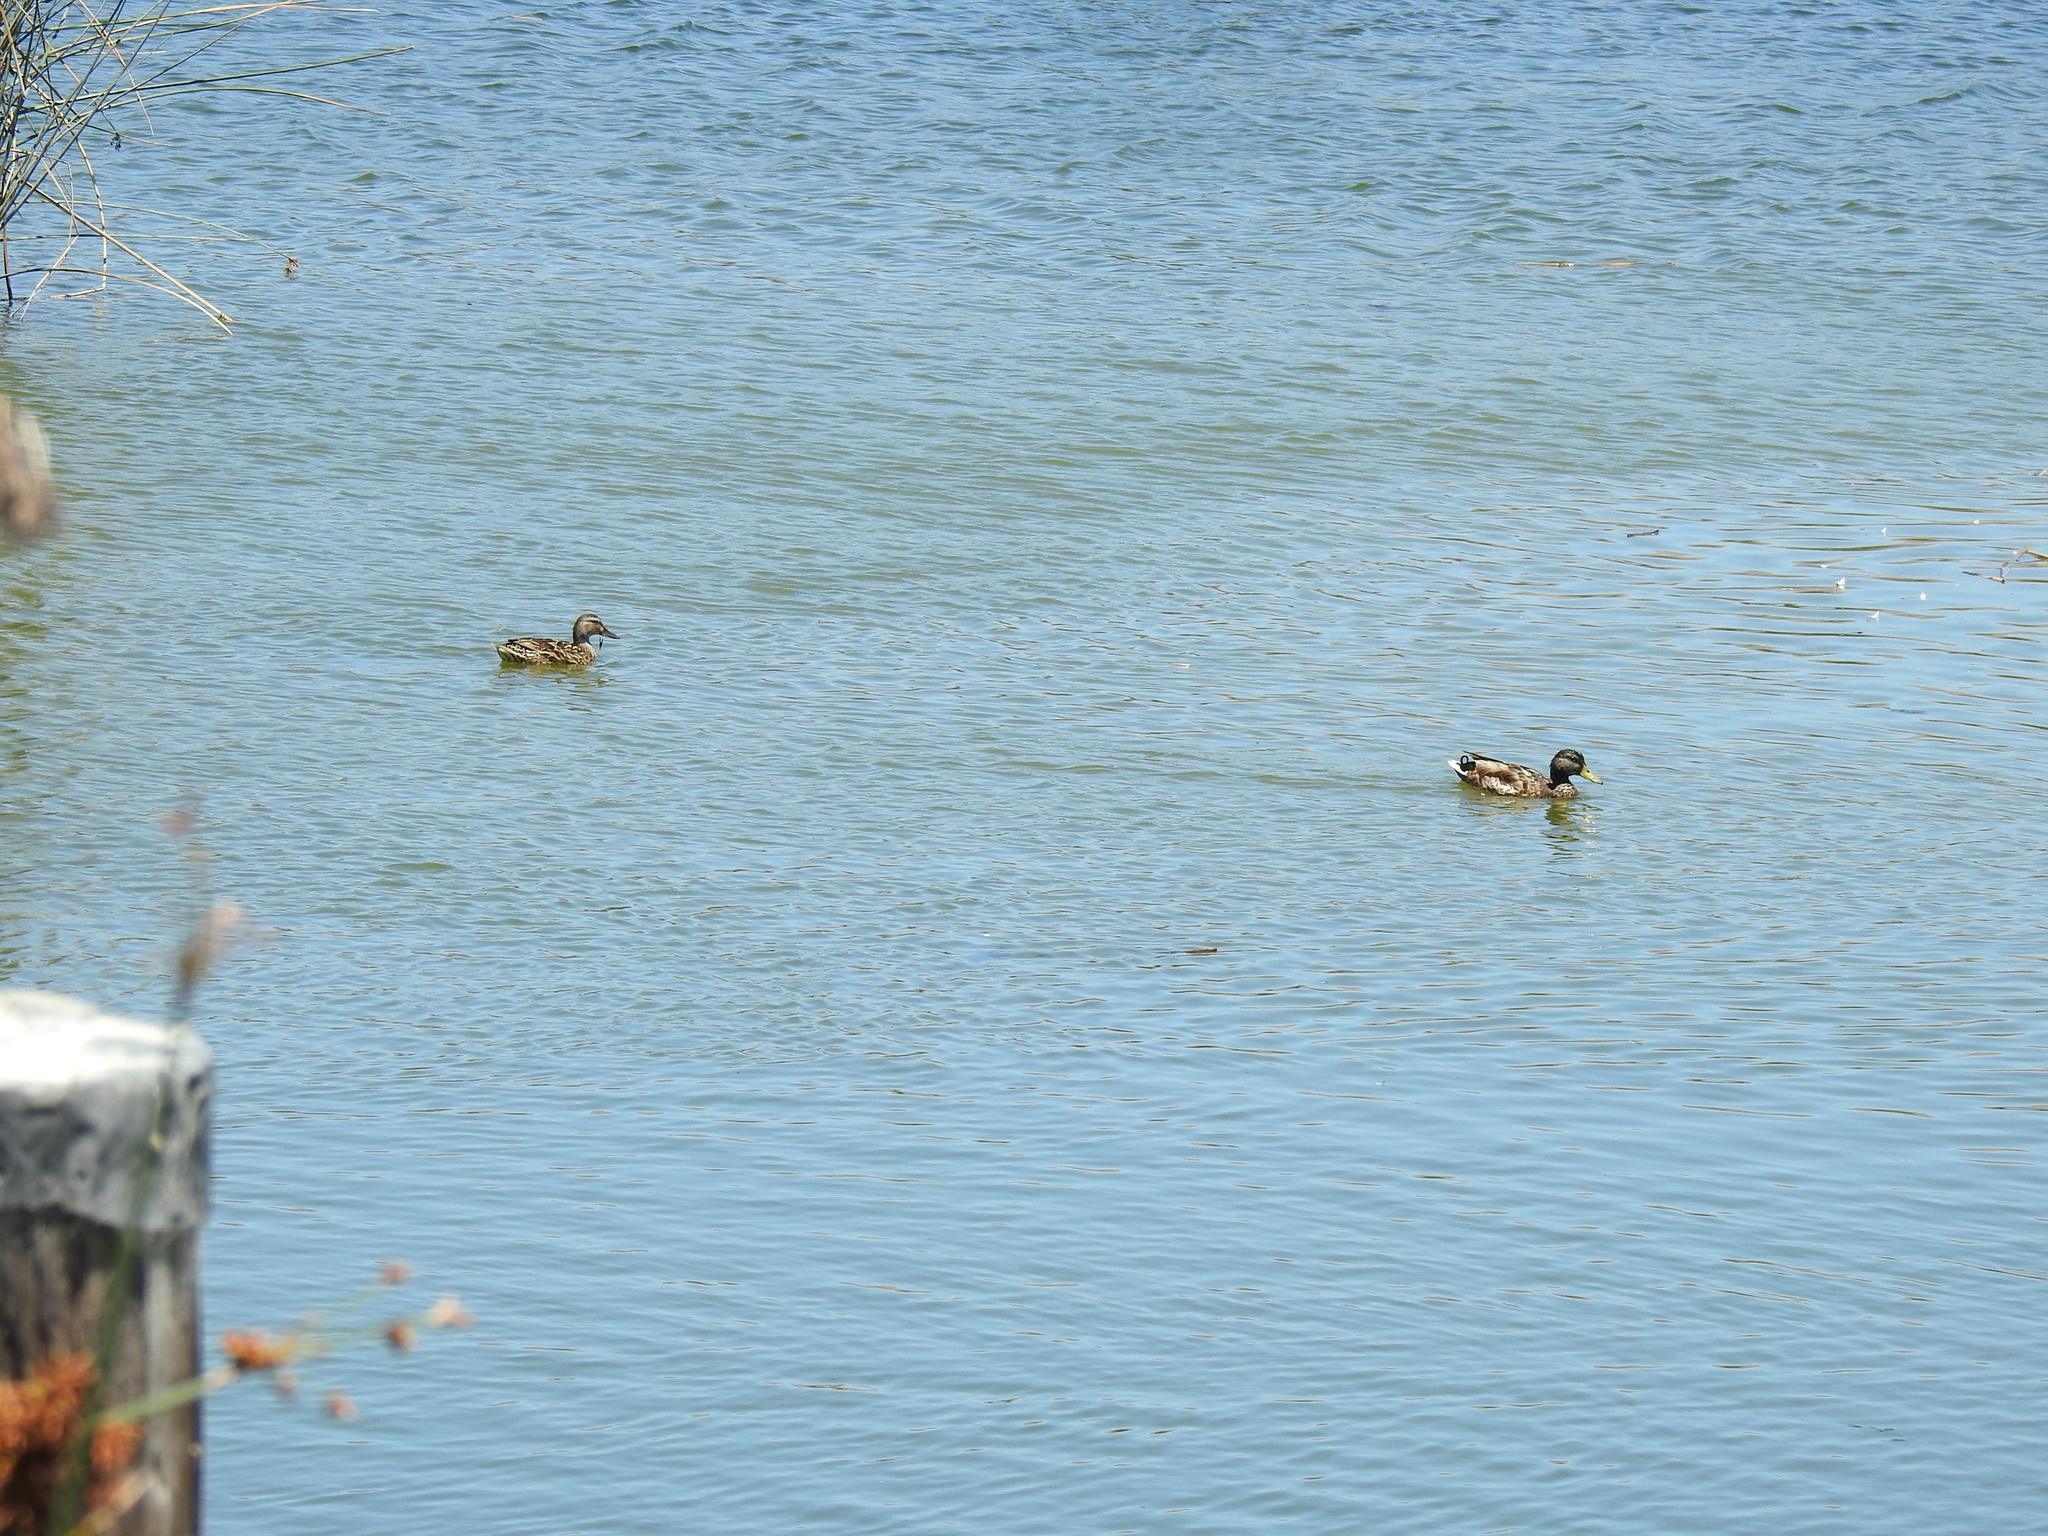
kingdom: Animalia
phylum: Chordata
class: Aves
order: Anseriformes
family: Anatidae
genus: Anas
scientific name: Anas platyrhynchos
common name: Mallard
